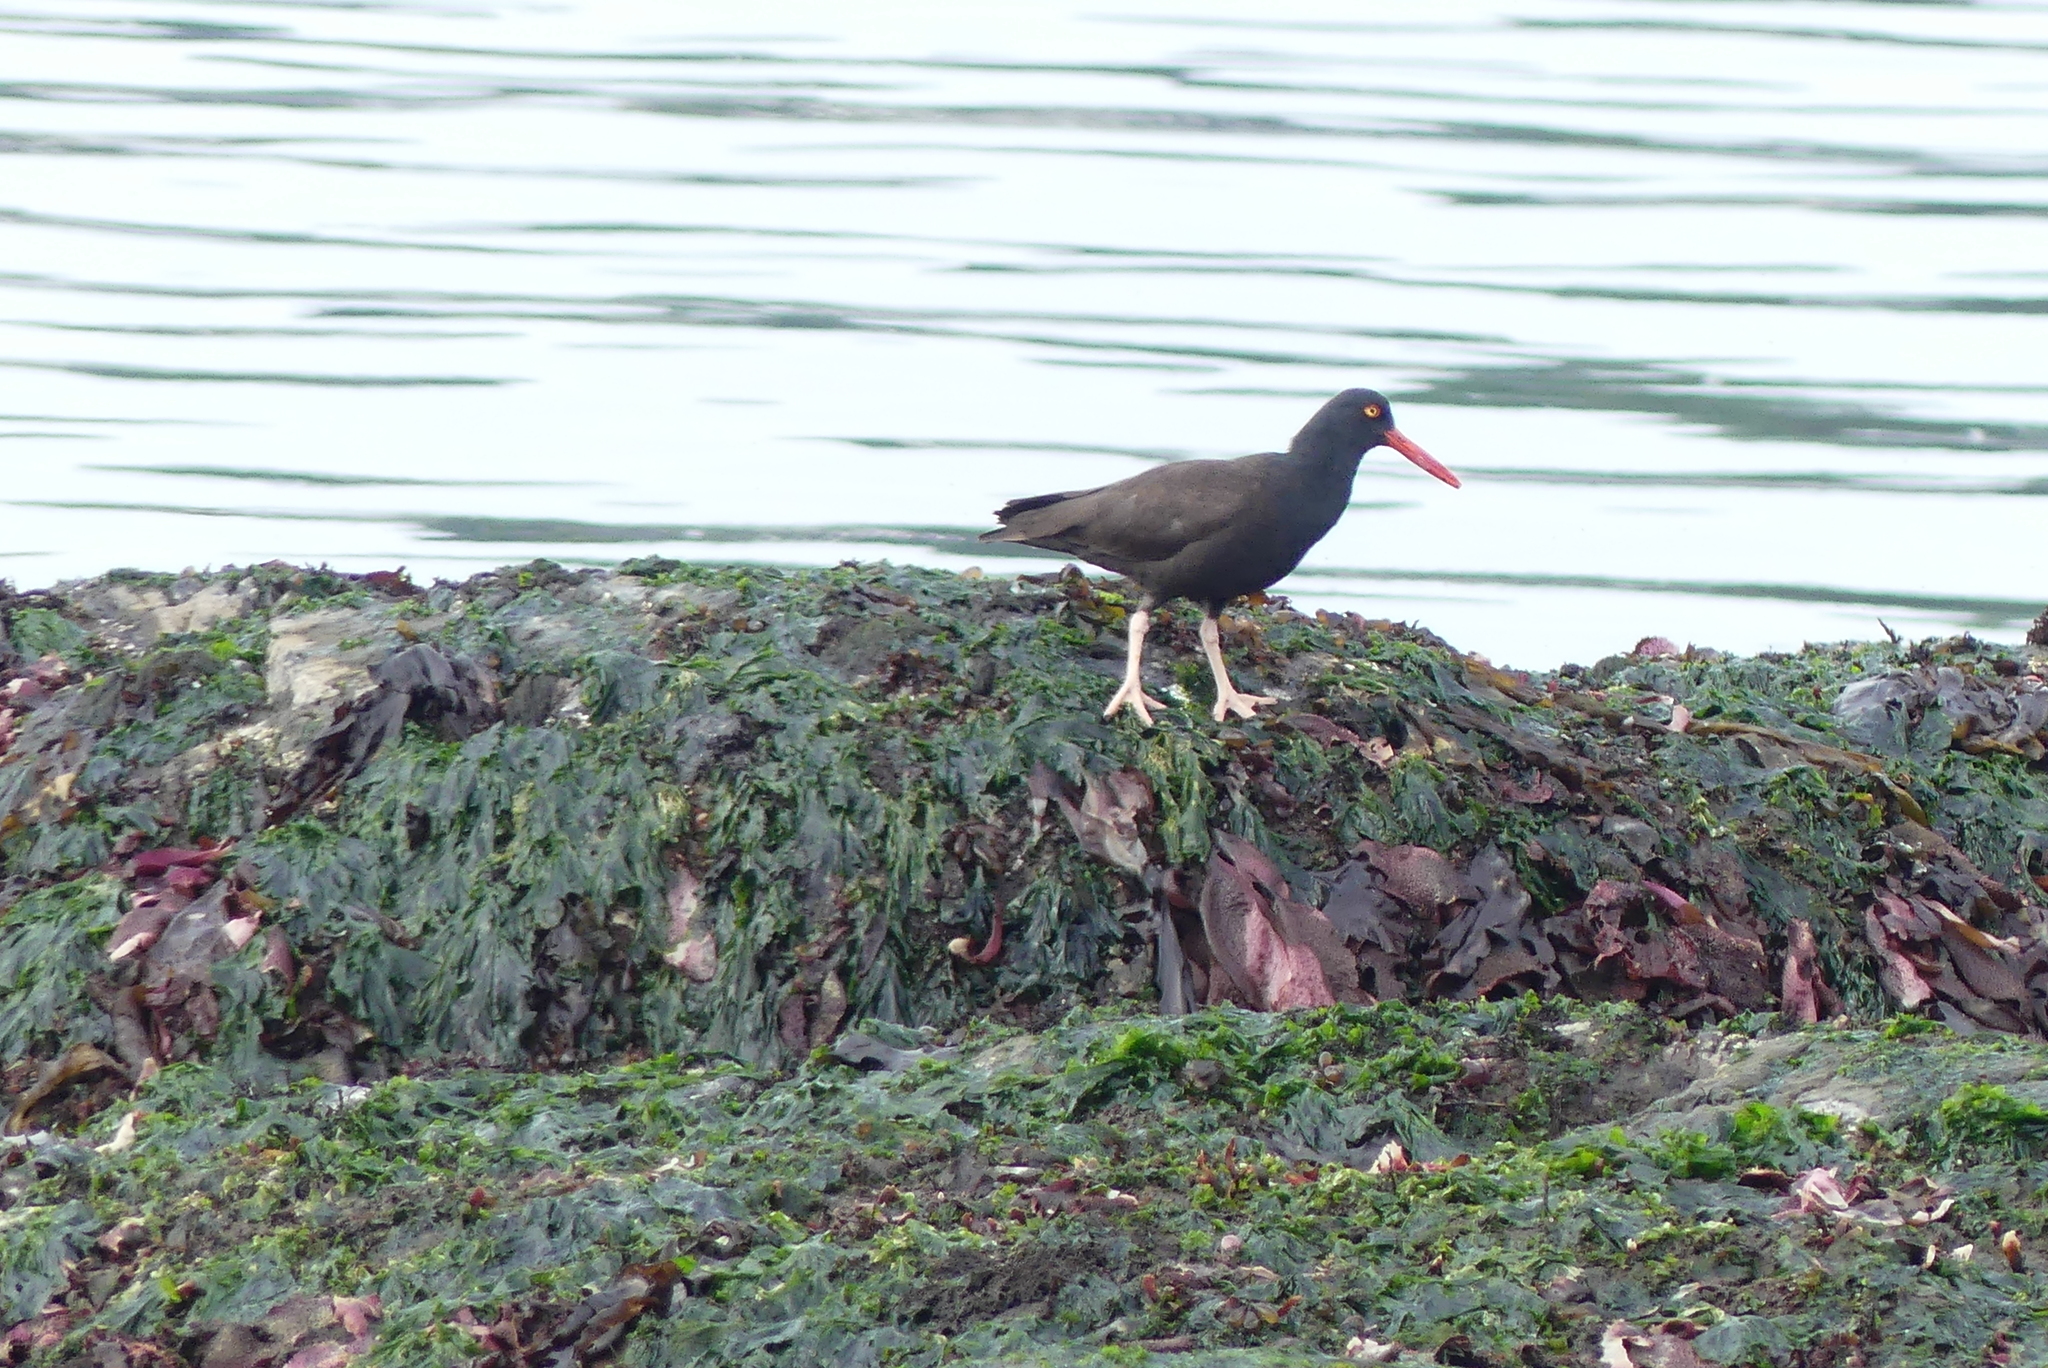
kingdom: Animalia
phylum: Chordata
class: Aves
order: Charadriiformes
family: Haematopodidae
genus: Haematopus
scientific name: Haematopus bachmani
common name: Black oystercatcher
